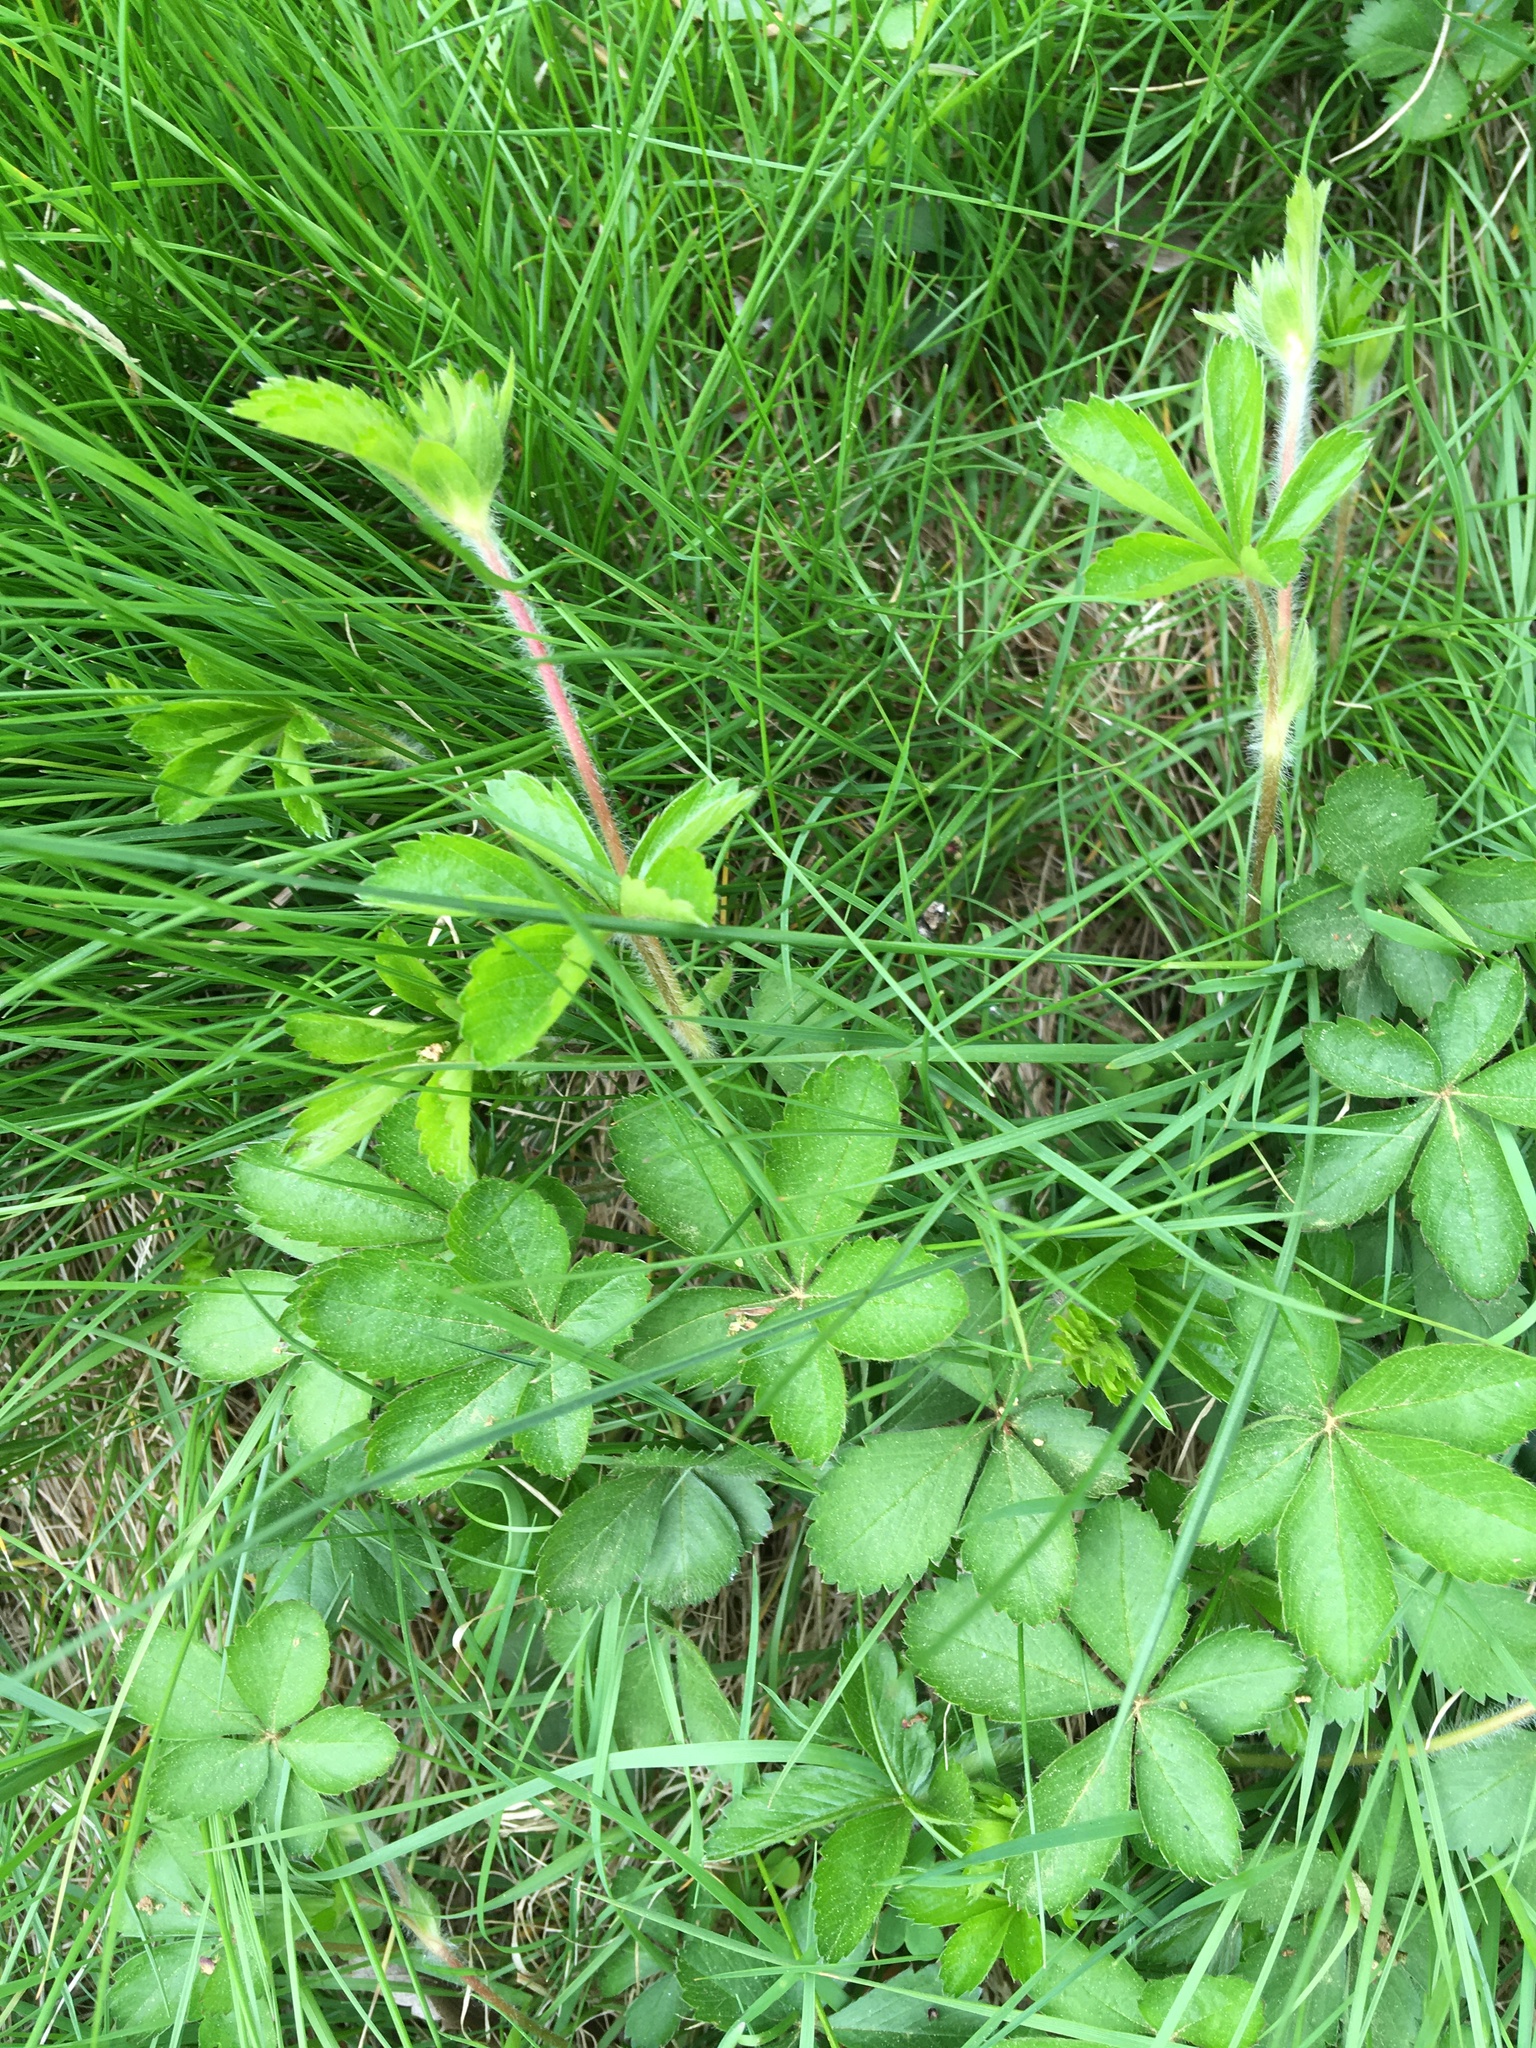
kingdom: Plantae
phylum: Tracheophyta
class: Magnoliopsida
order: Rosales
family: Rosaceae
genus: Potentilla
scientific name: Potentilla simplex
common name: Old field cinquefoil
